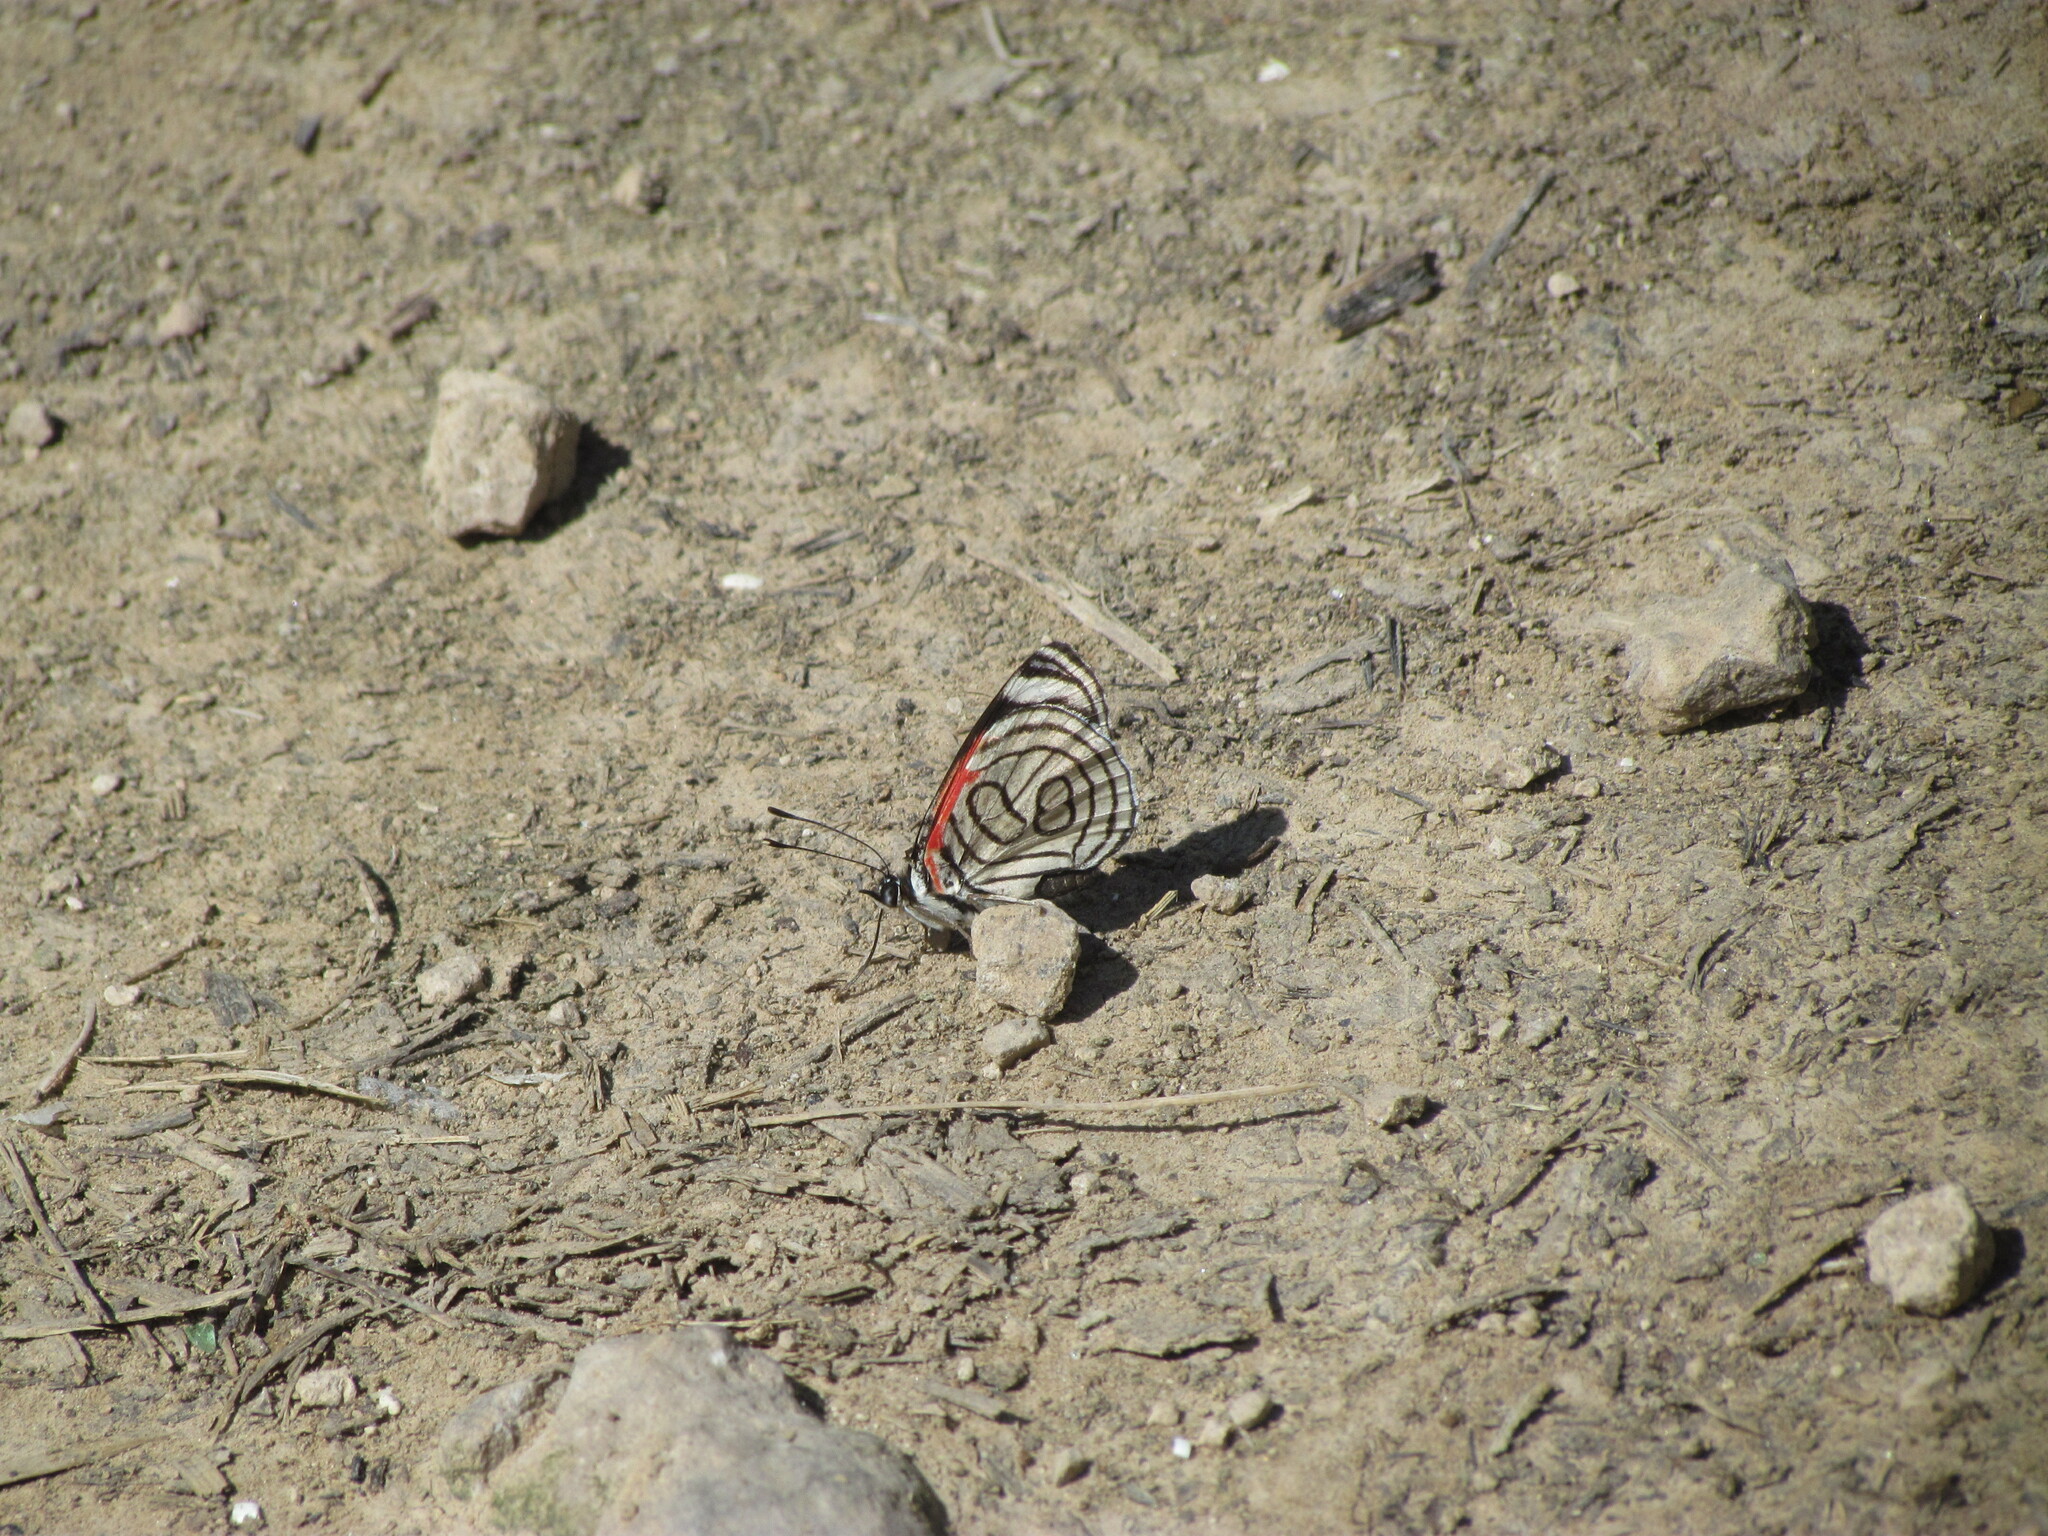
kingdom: Animalia
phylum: Arthropoda
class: Insecta
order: Lepidoptera
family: Nymphalidae
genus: Diaethria
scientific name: Diaethria candrena
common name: Number eighty
